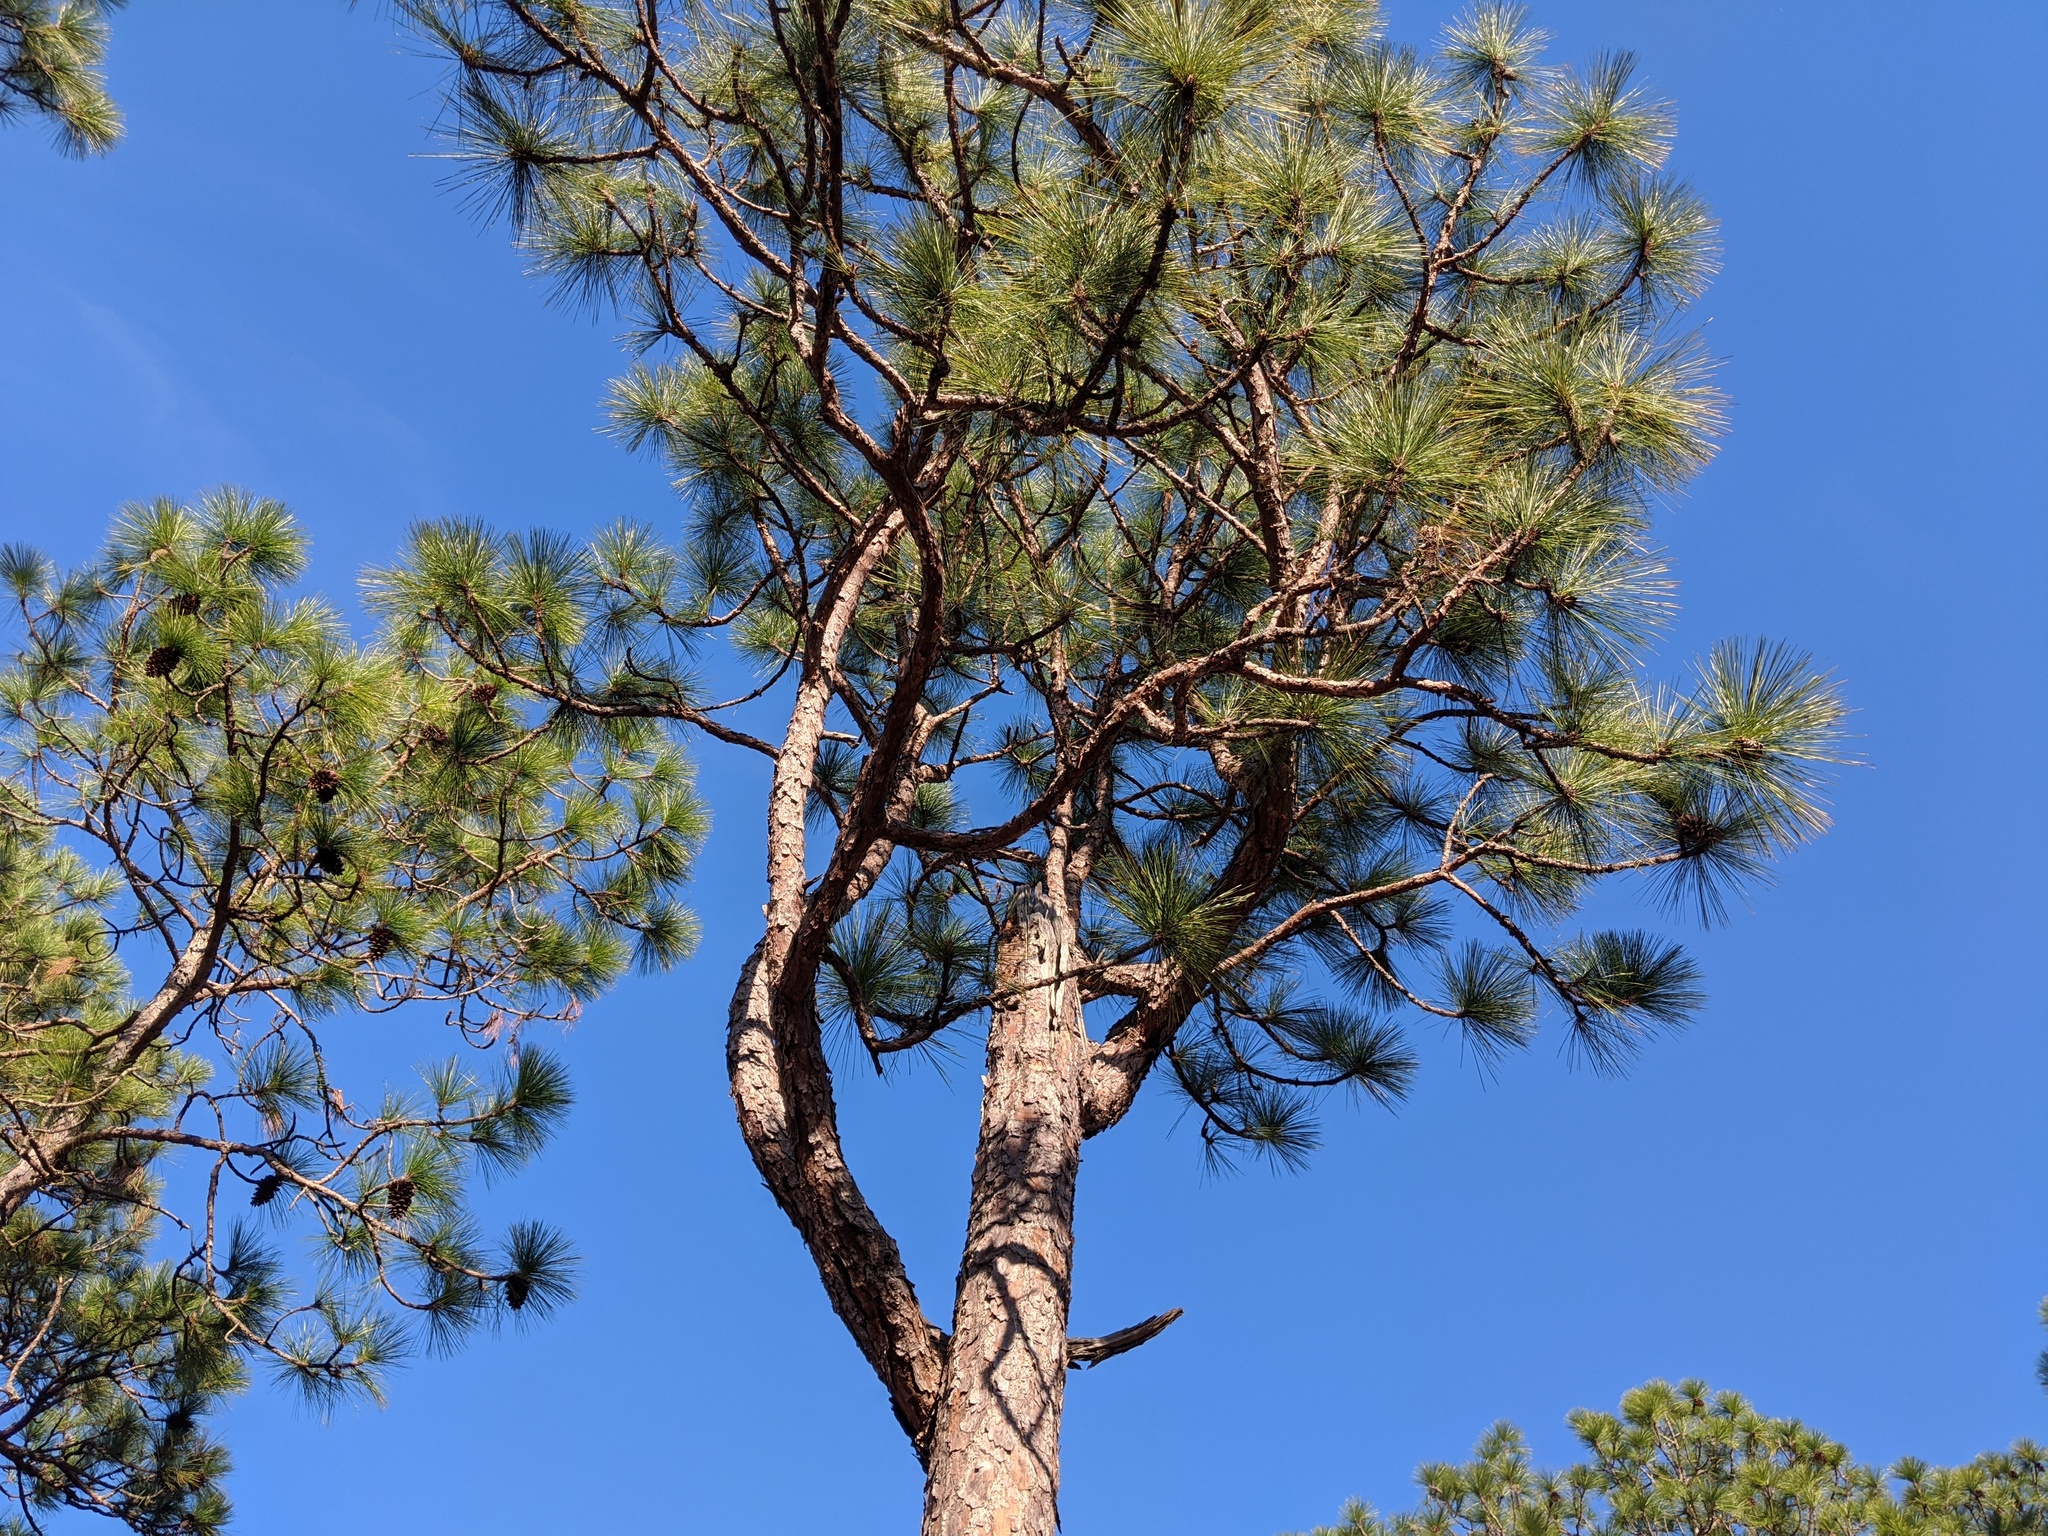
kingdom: Plantae
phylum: Tracheophyta
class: Pinopsida
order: Pinales
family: Pinaceae
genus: Pinus
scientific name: Pinus palustris
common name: Longleaf pine
